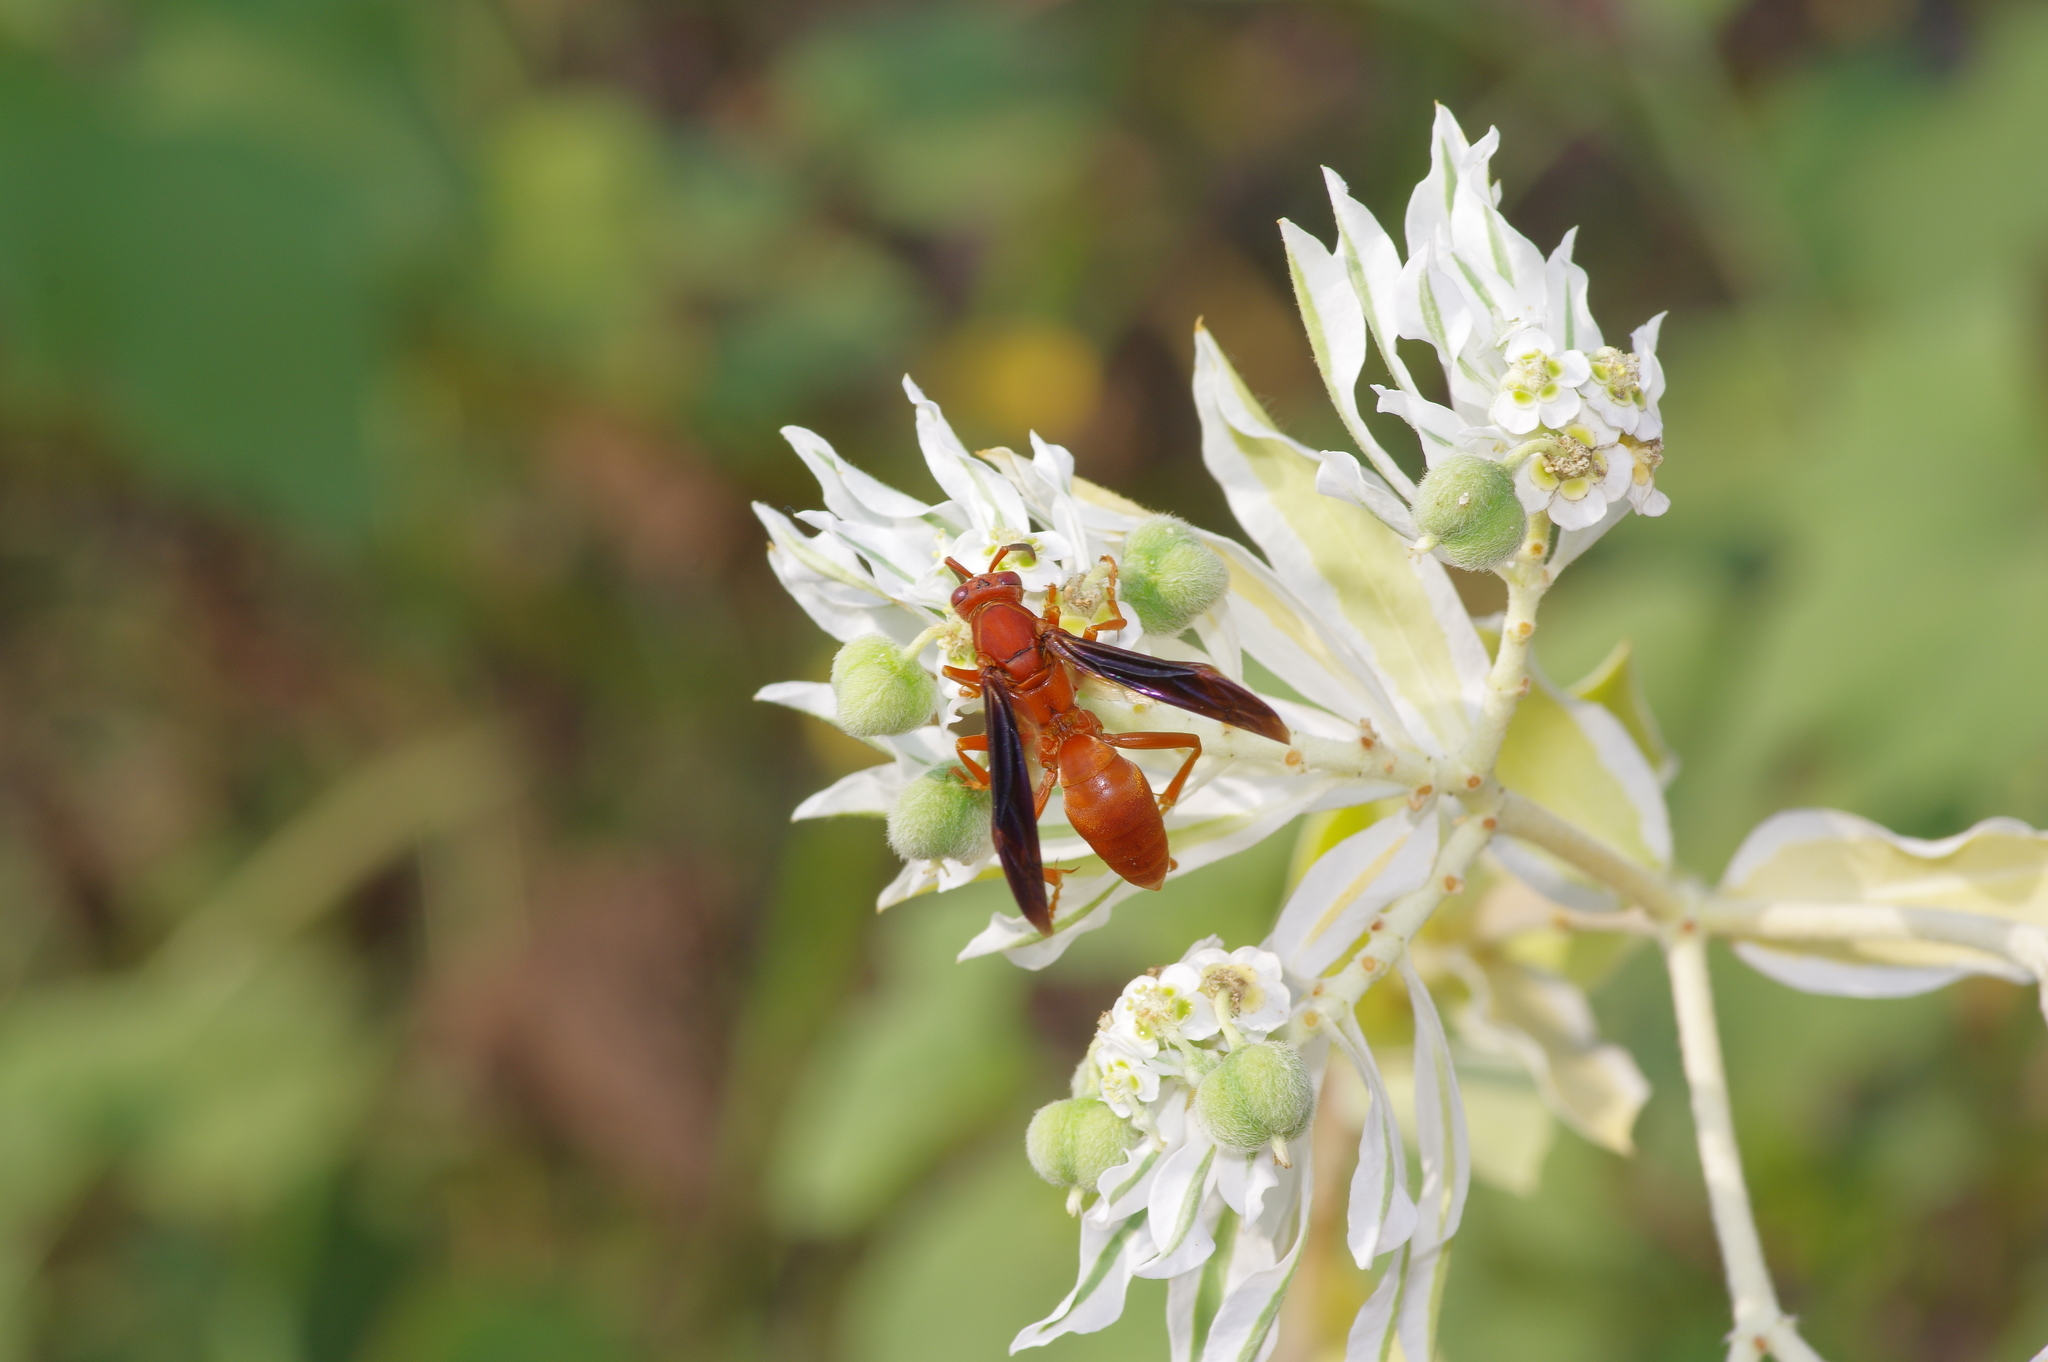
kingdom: Animalia
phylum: Arthropoda
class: Insecta
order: Hymenoptera
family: Eumenidae
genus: Polistes
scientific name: Polistes carolina
